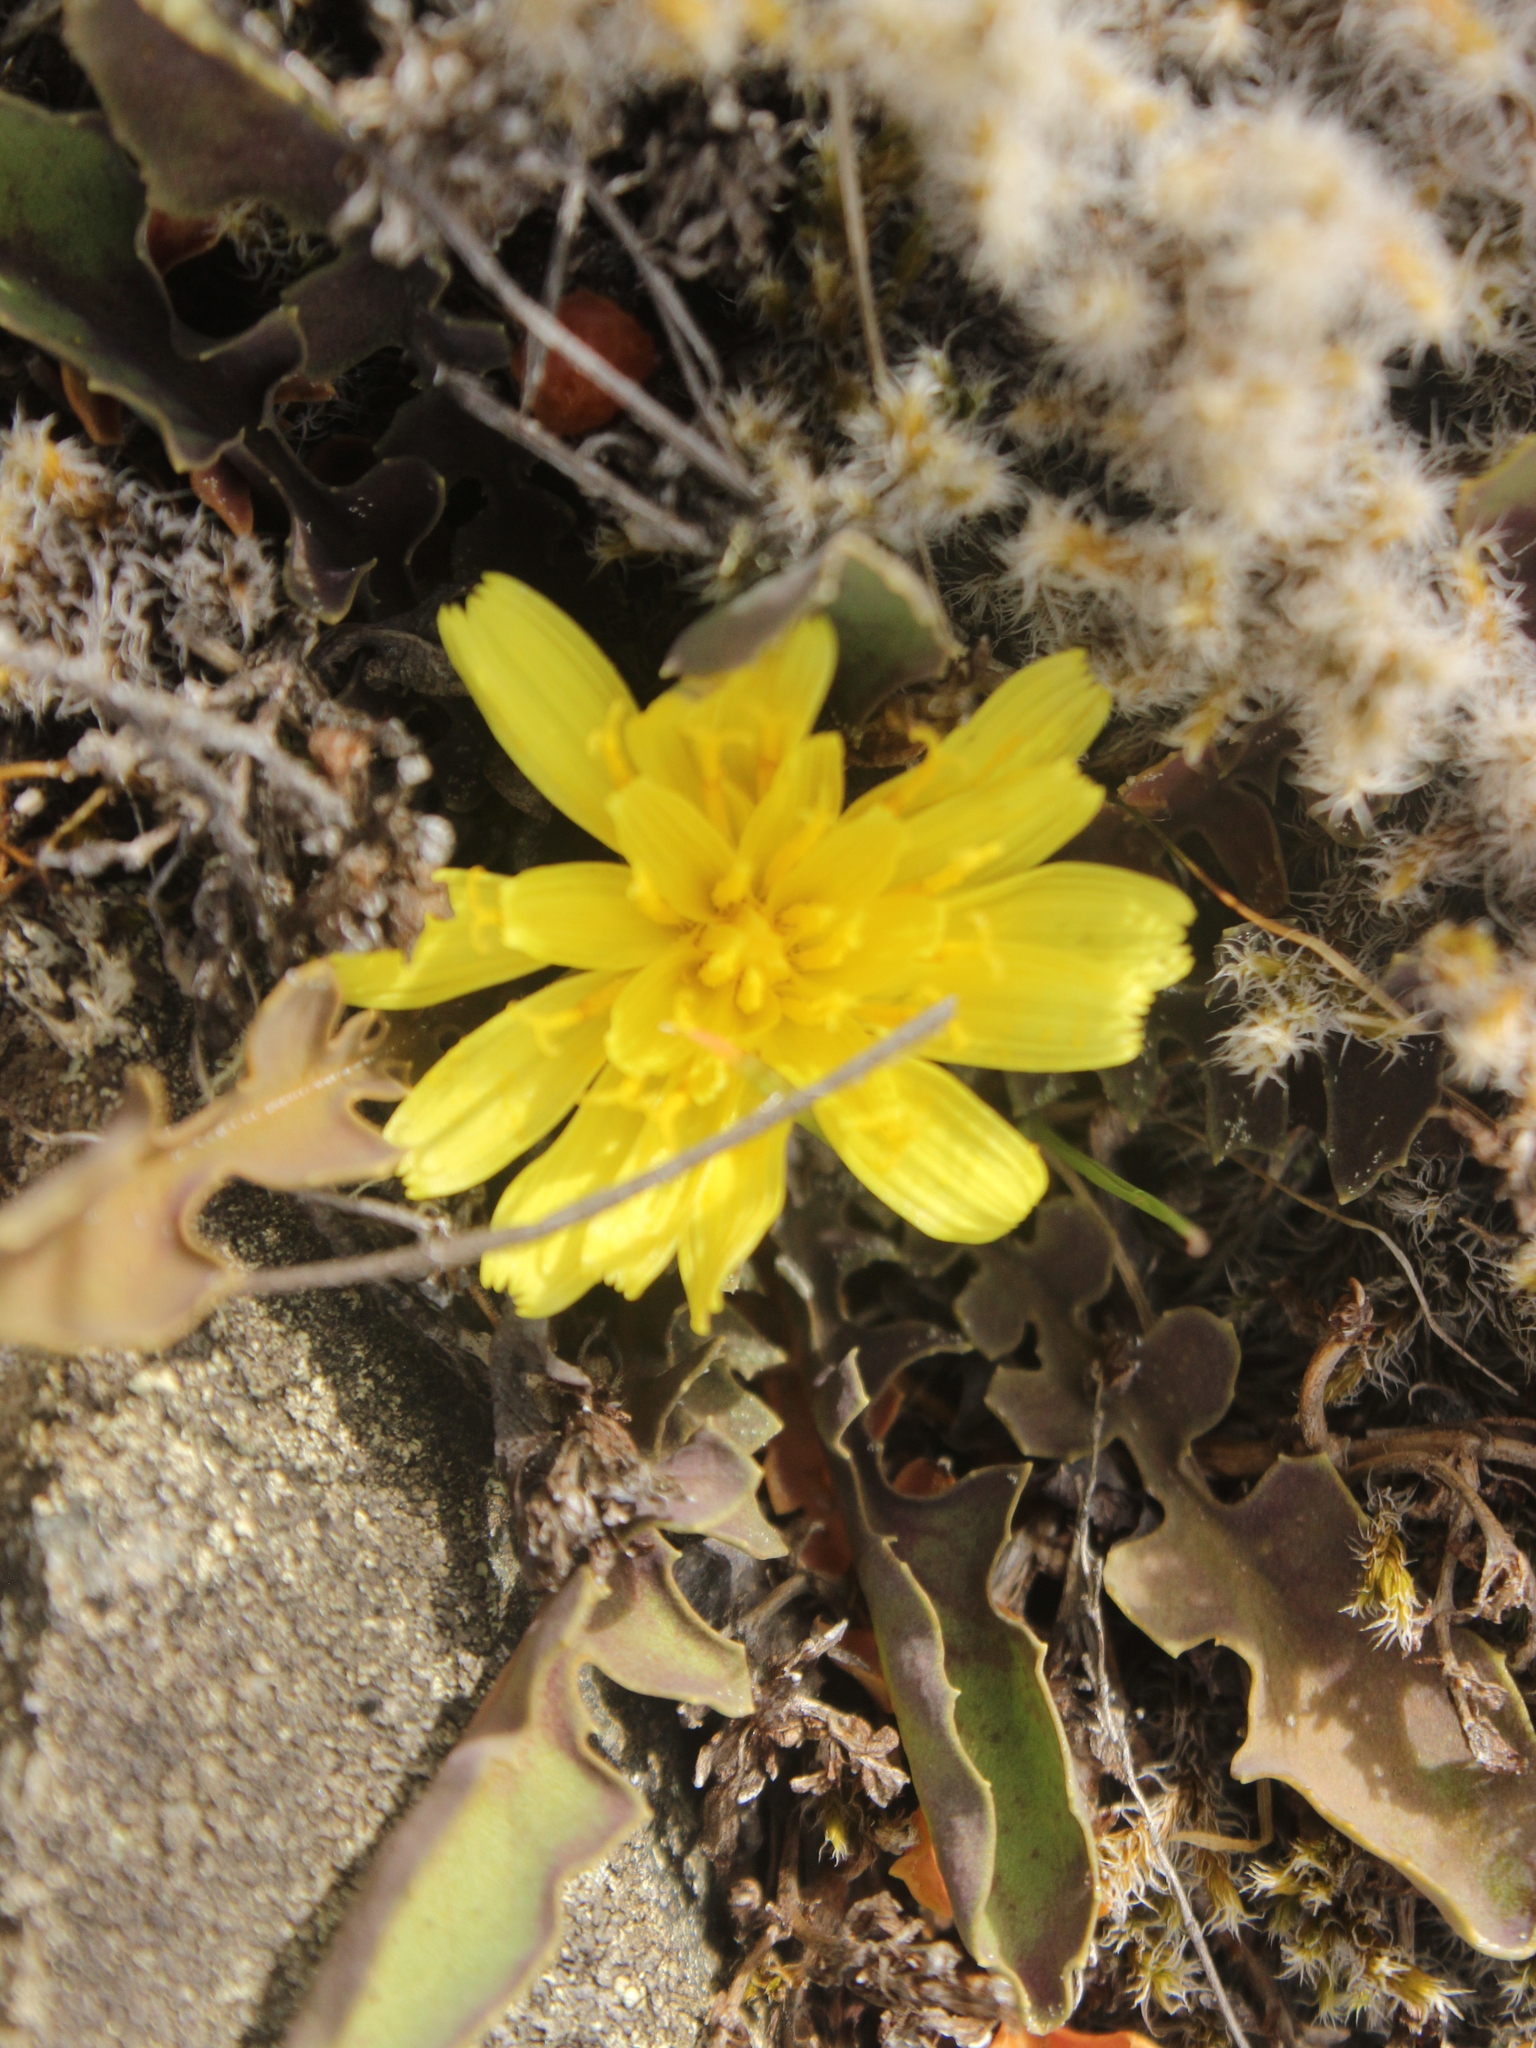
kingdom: Plantae
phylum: Tracheophyta
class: Magnoliopsida
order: Asterales
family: Asteraceae
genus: Sonchus
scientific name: Sonchus novae-zelandiae
